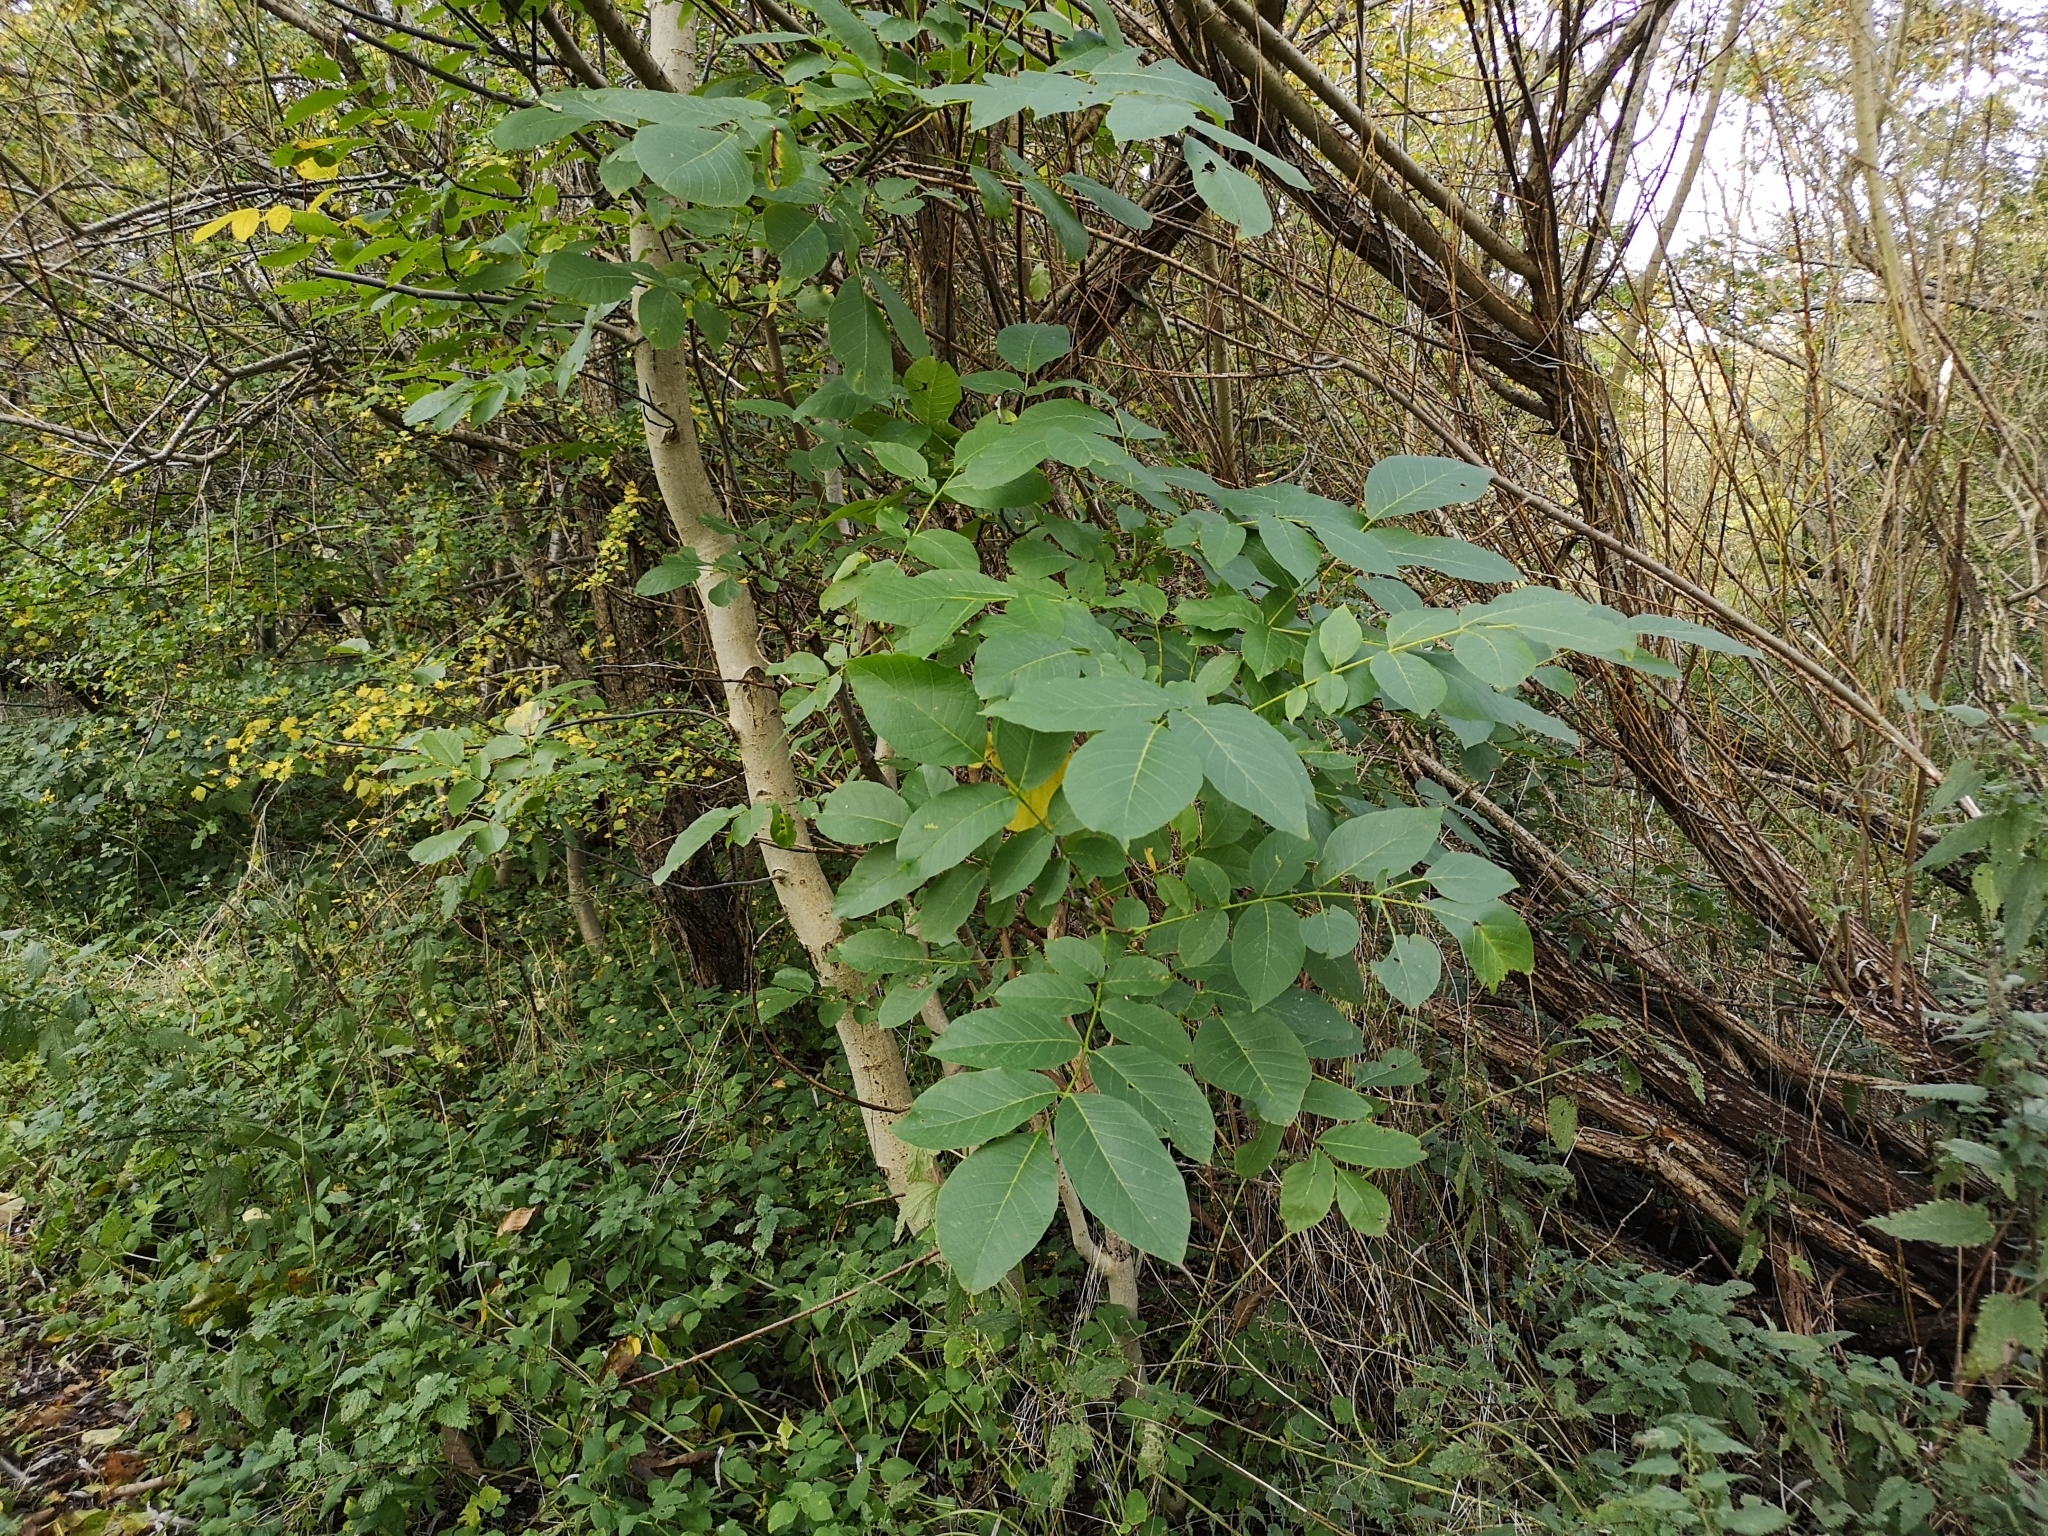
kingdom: Plantae
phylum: Tracheophyta
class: Magnoliopsida
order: Fagales
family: Juglandaceae
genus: Juglans
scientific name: Juglans regia
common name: Walnut
